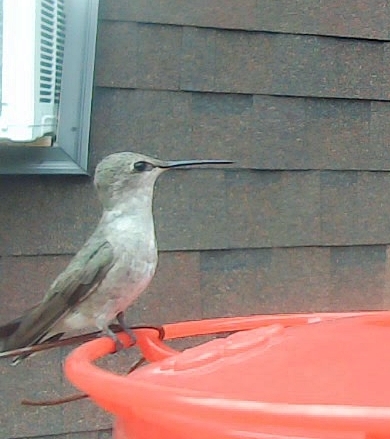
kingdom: Animalia
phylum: Chordata
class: Aves
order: Apodiformes
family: Trochilidae
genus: Archilochus
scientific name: Archilochus alexandri
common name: Black-chinned hummingbird
